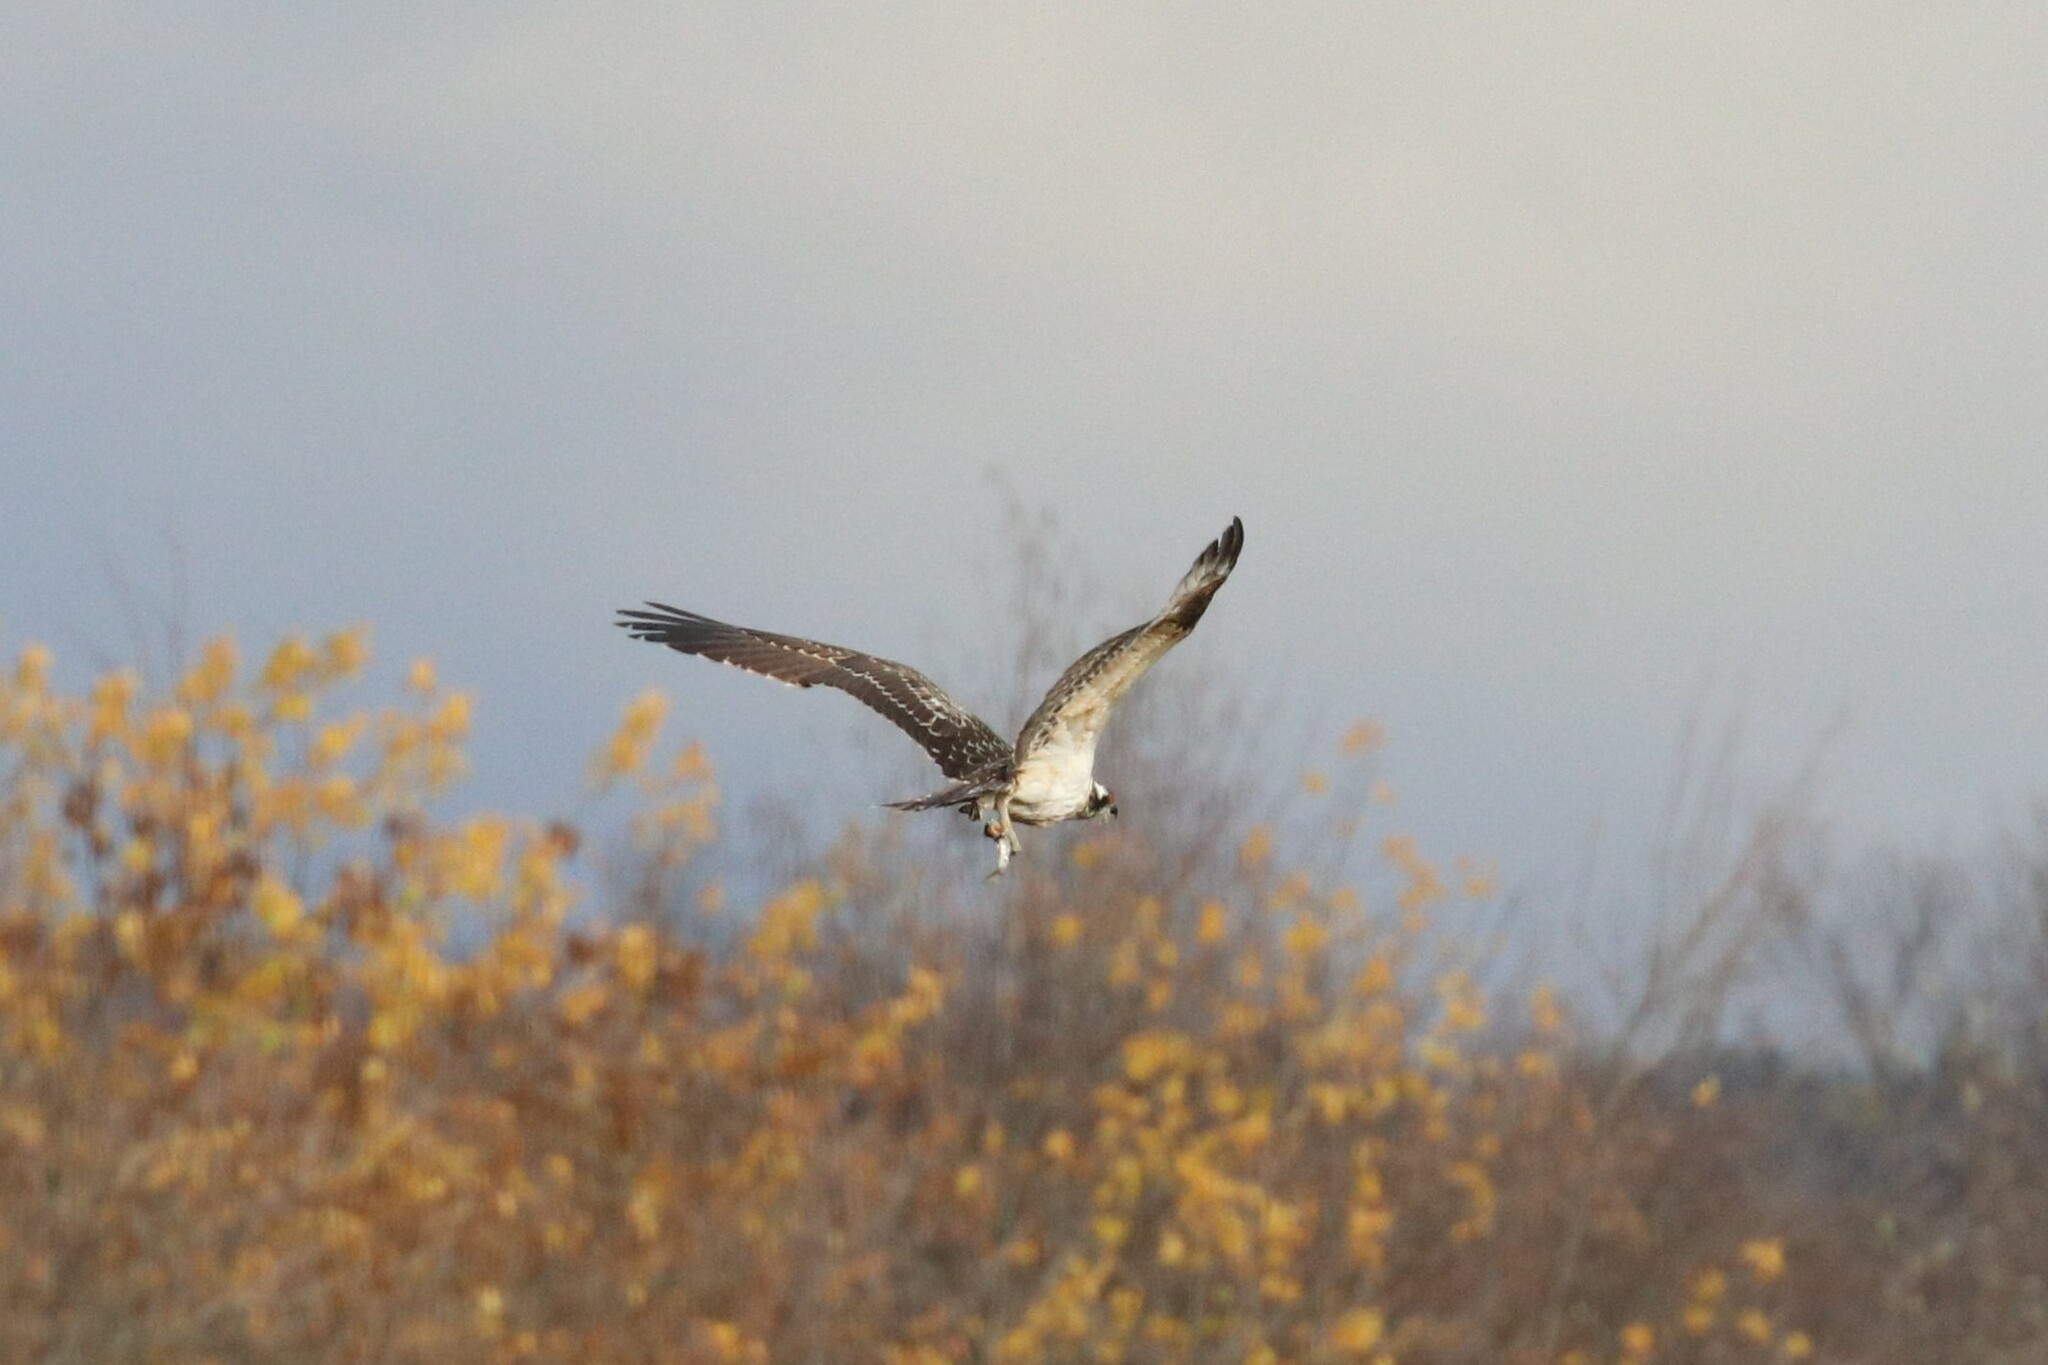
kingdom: Animalia
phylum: Chordata
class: Aves
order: Accipitriformes
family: Pandionidae
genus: Pandion
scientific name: Pandion haliaetus
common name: Osprey
